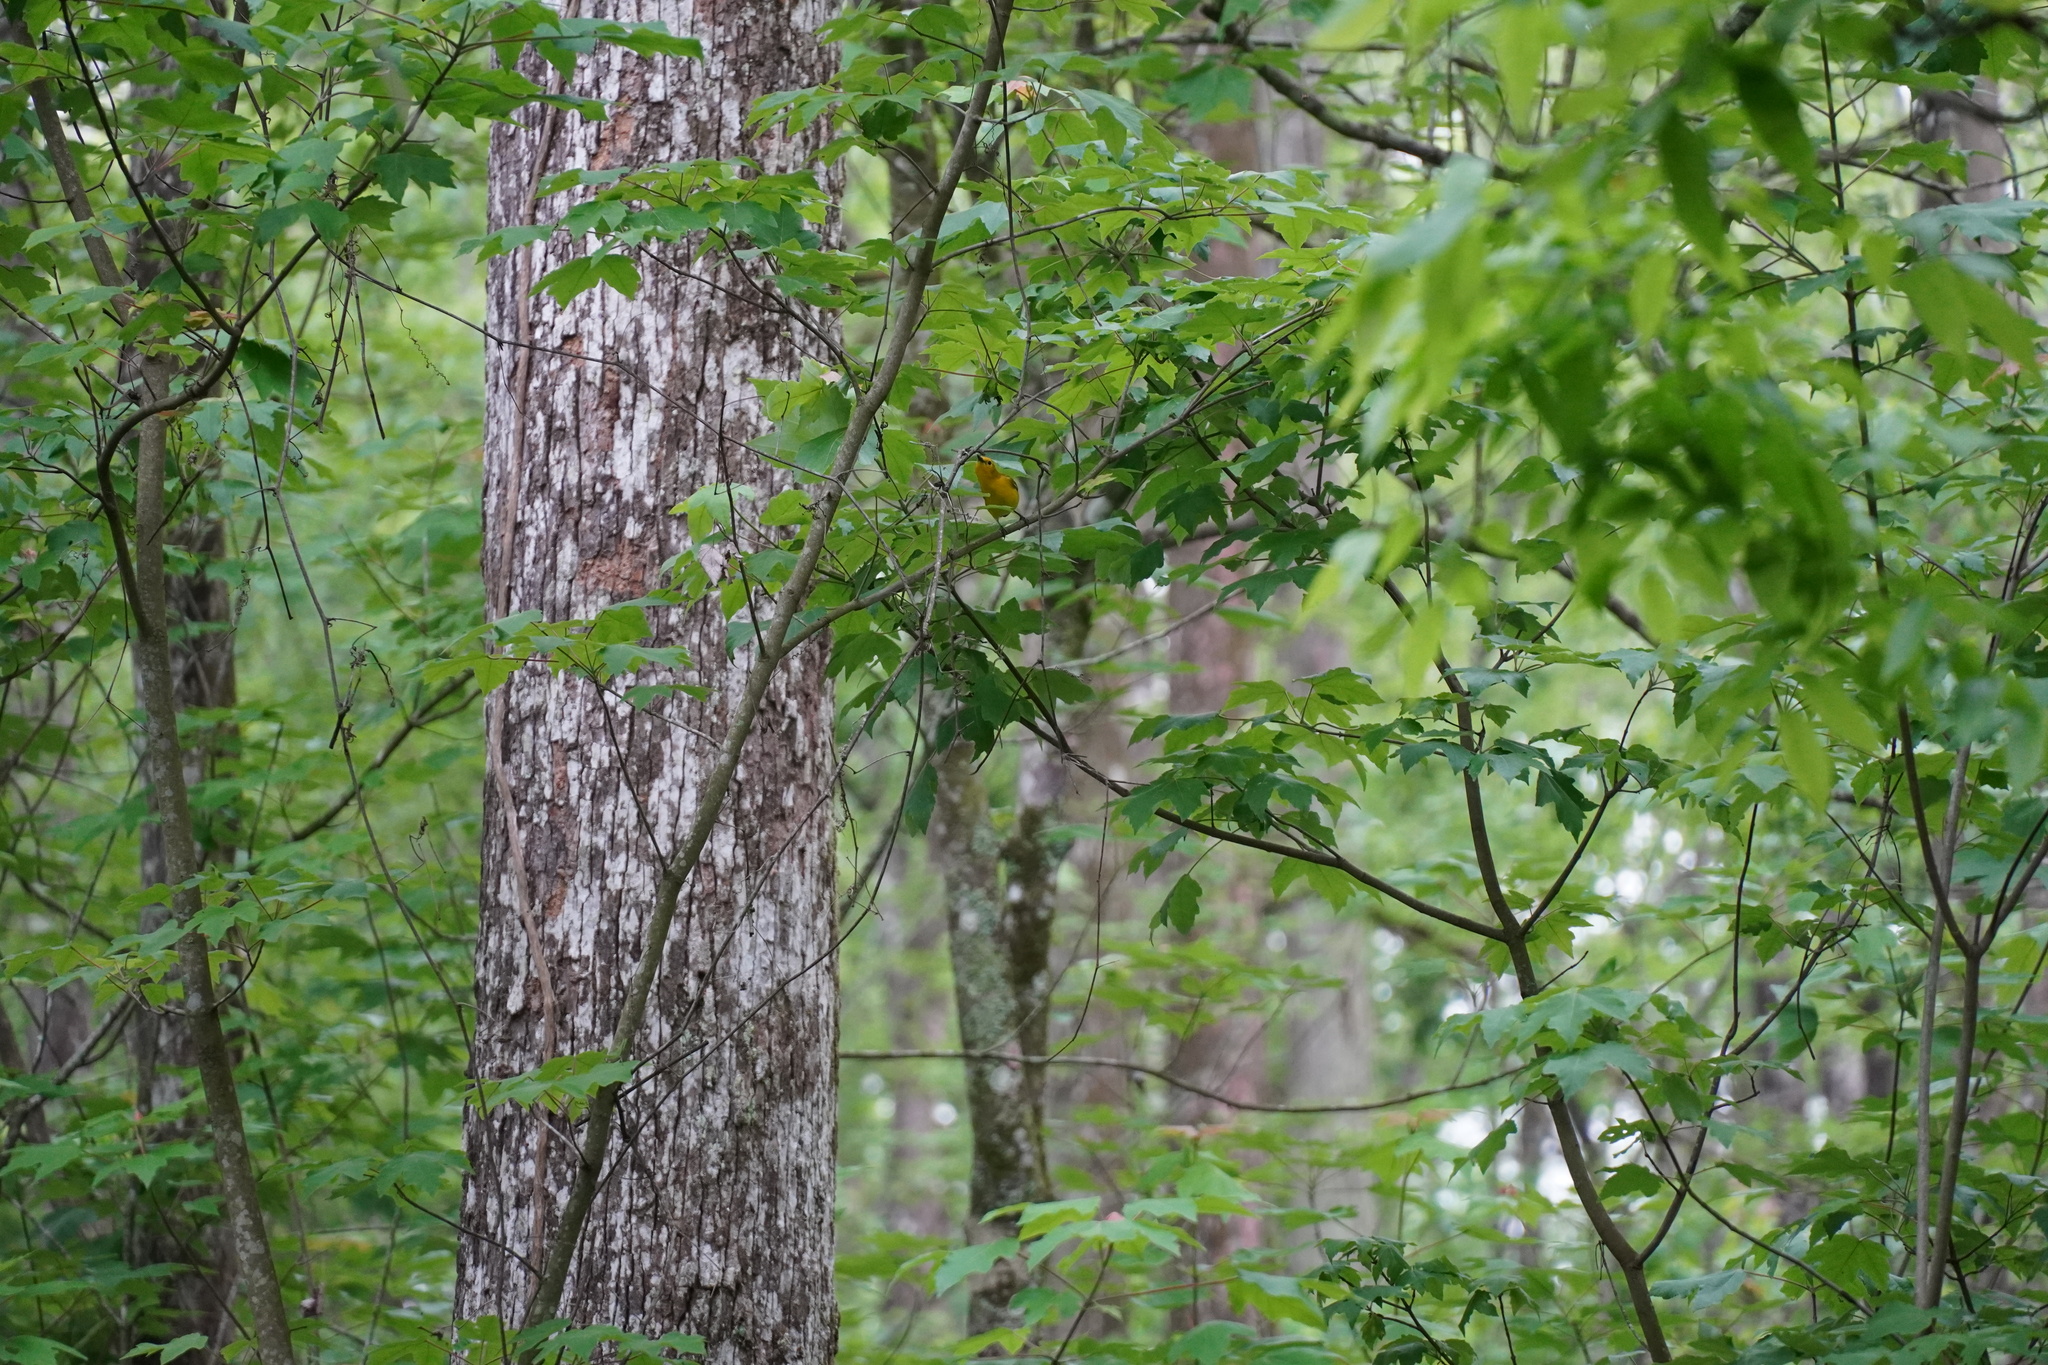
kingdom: Animalia
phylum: Chordata
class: Aves
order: Passeriformes
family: Parulidae
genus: Protonotaria
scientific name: Protonotaria citrea
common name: Prothonotary warbler
